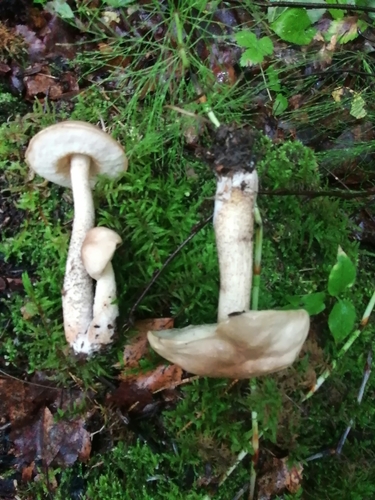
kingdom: Fungi
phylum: Basidiomycota
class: Agaricomycetes
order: Boletales
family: Boletaceae
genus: Leccinum
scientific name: Leccinum
